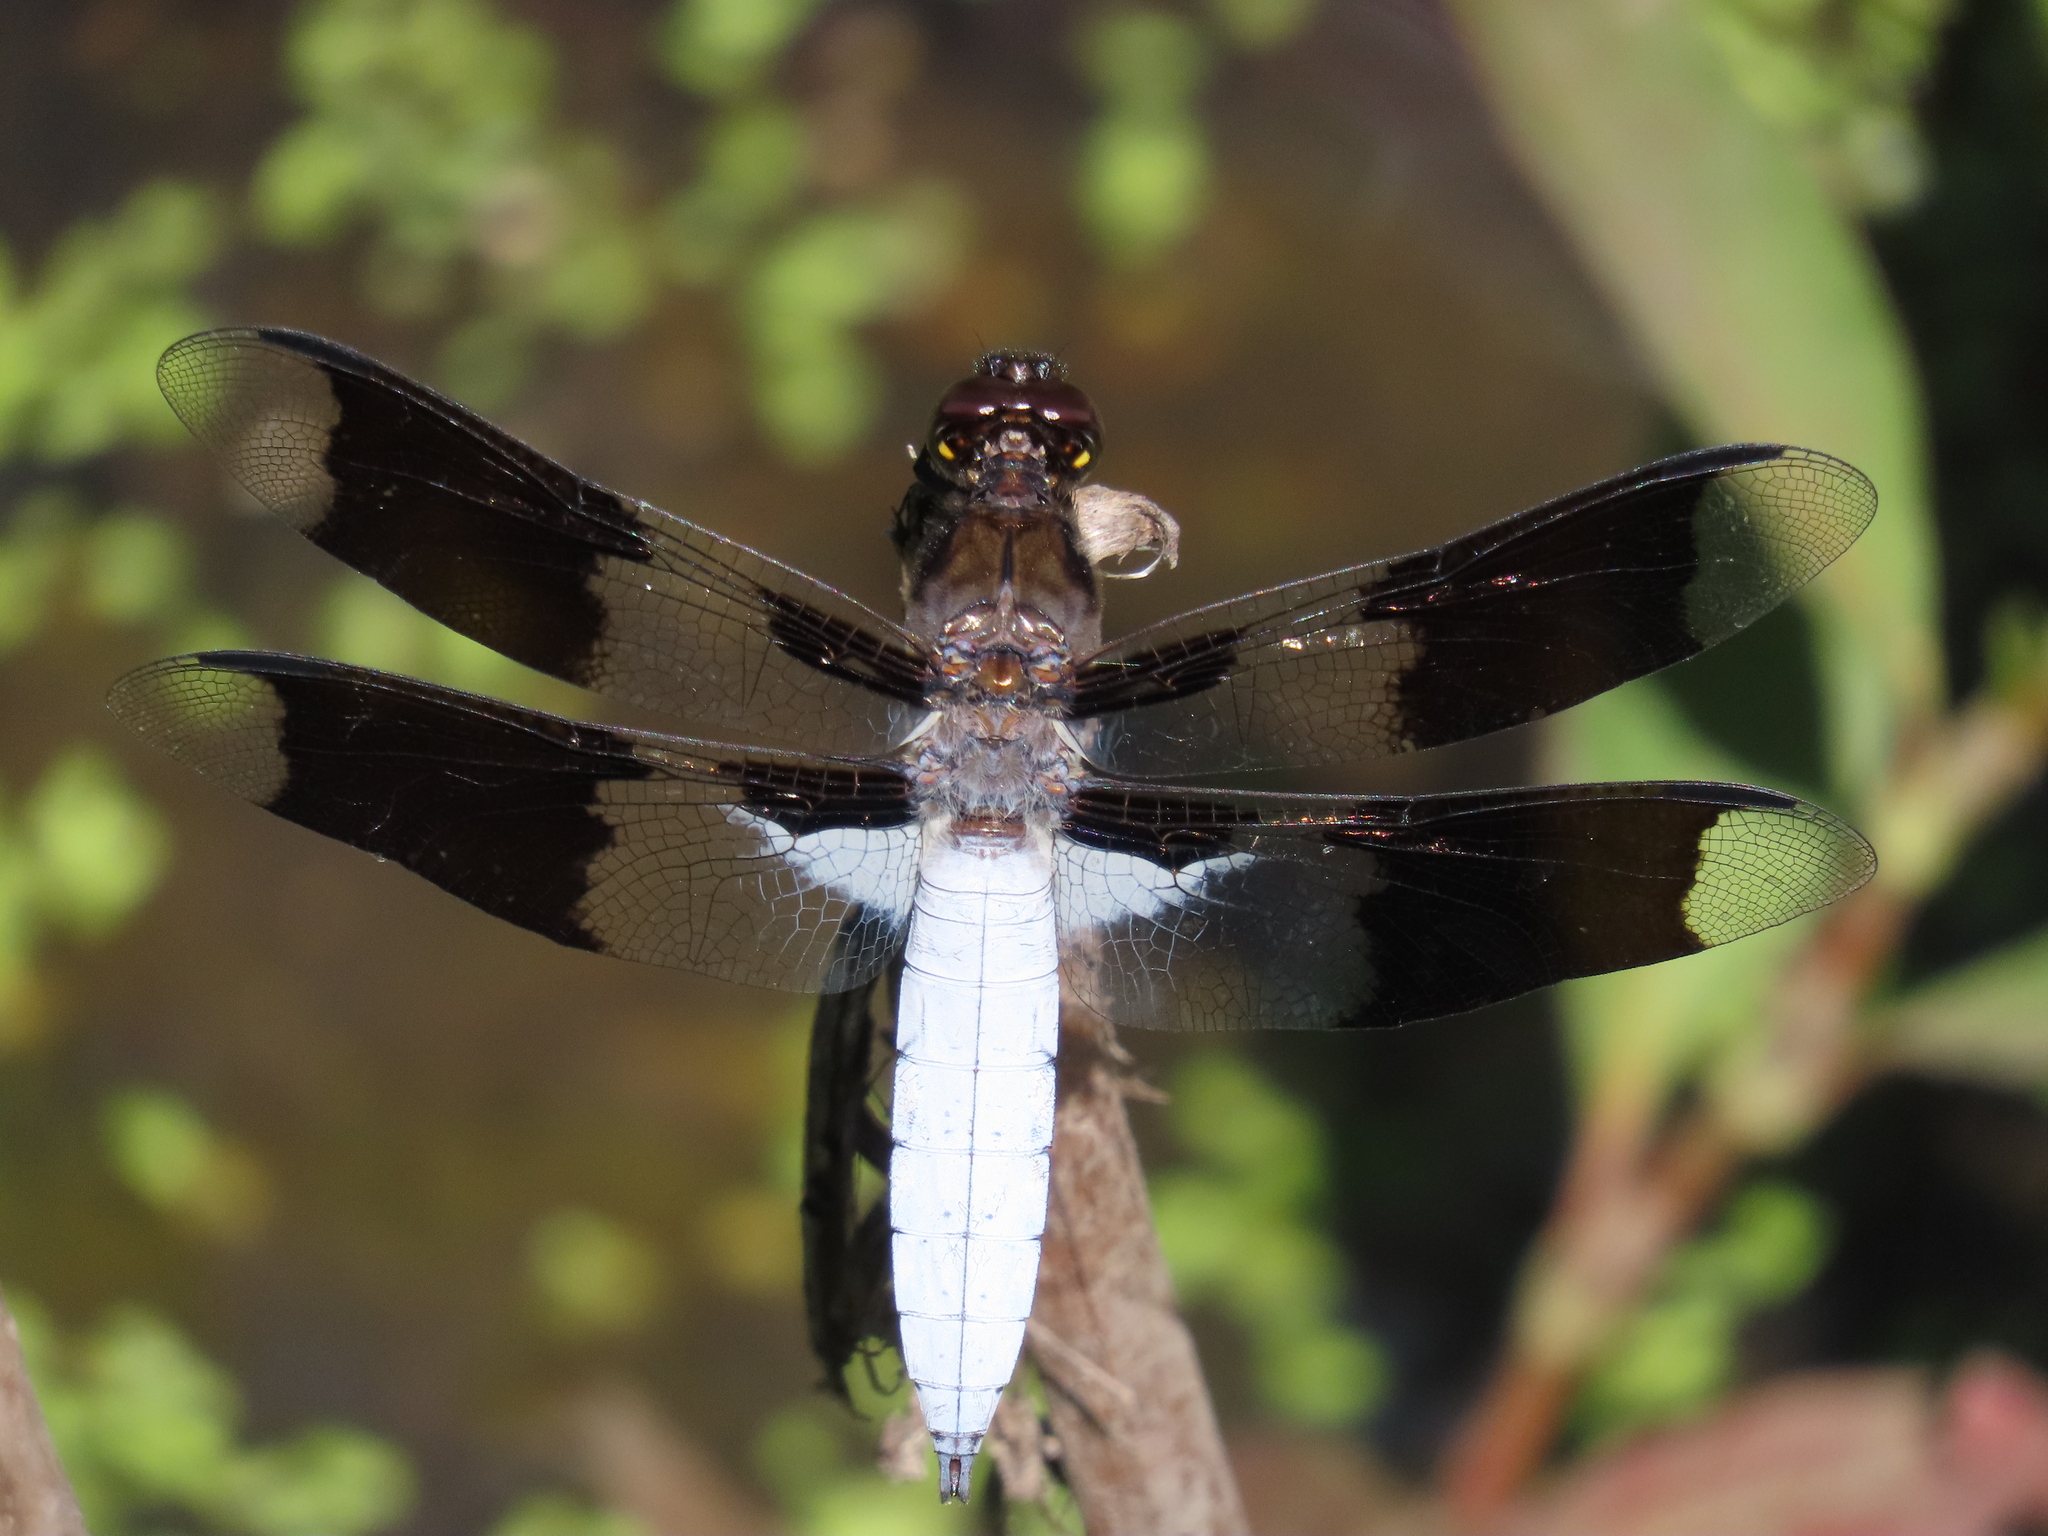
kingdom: Animalia
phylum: Arthropoda
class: Insecta
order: Odonata
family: Libellulidae
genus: Plathemis
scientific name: Plathemis lydia
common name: Common whitetail
